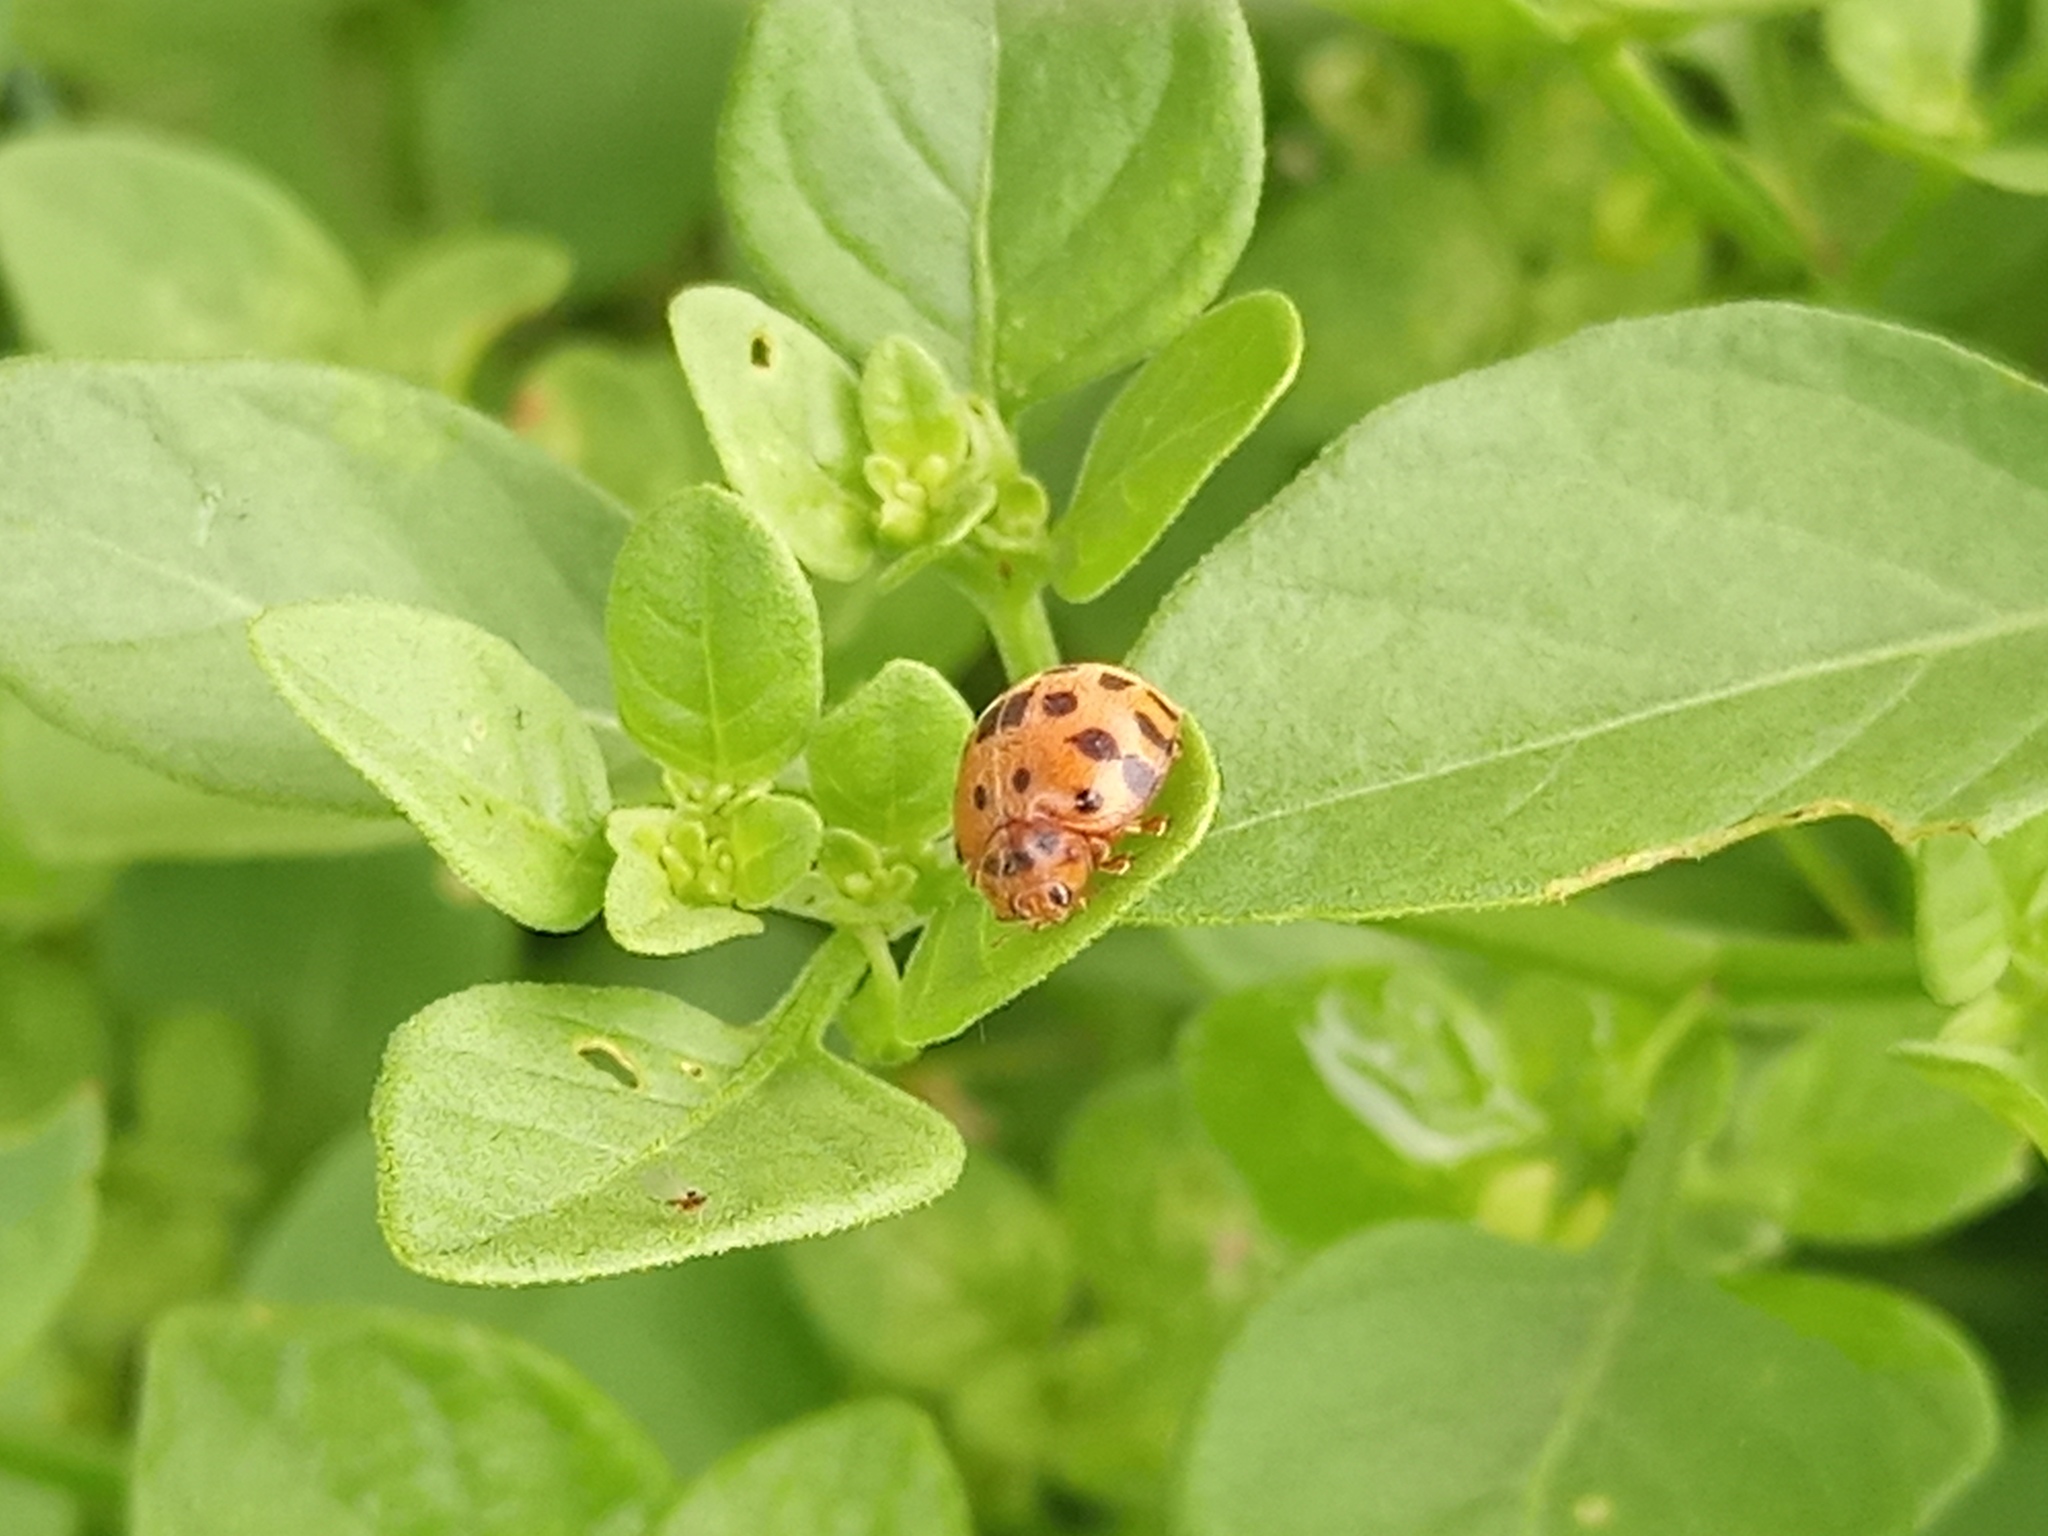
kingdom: Animalia
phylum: Arthropoda
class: Insecta
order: Coleoptera
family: Coccinellidae
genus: Henosepilachna
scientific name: Henosepilachna vigintioctopunctata
